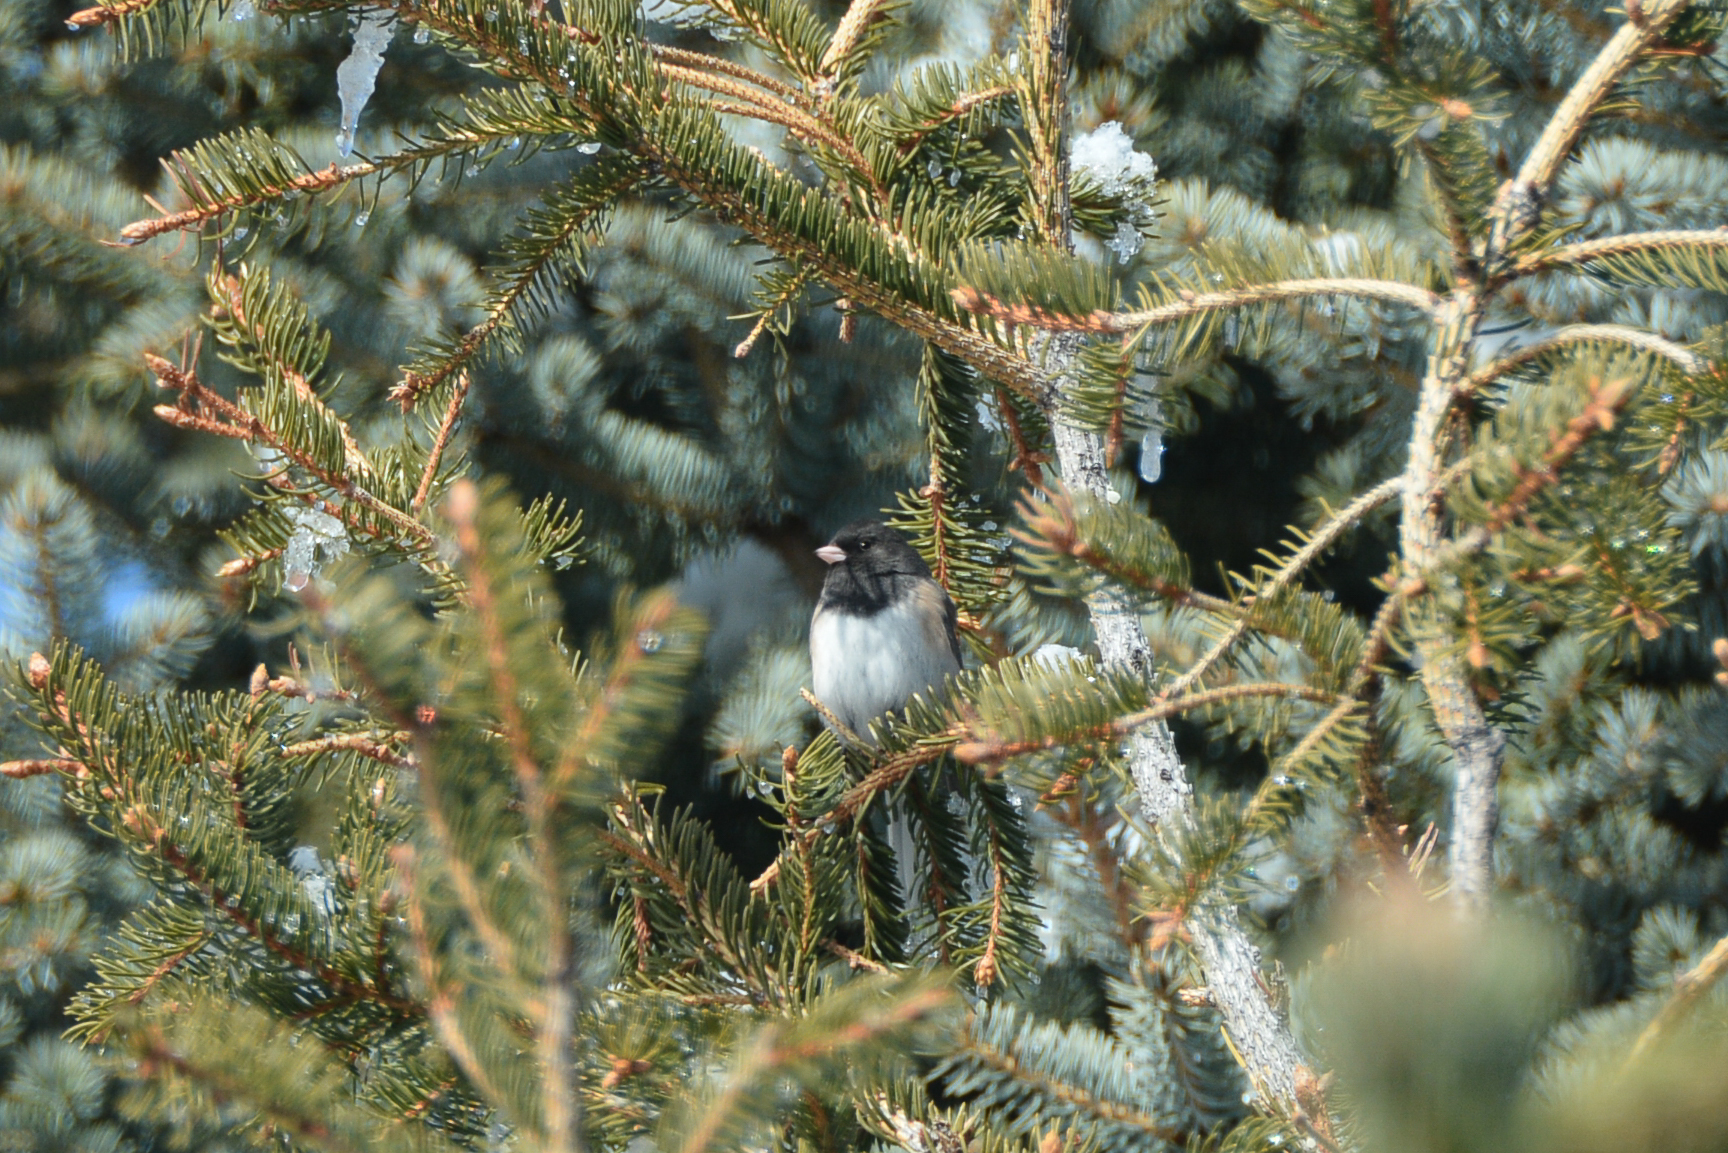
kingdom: Animalia
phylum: Chordata
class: Aves
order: Passeriformes
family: Passerellidae
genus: Junco
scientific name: Junco hyemalis
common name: Dark-eyed junco
